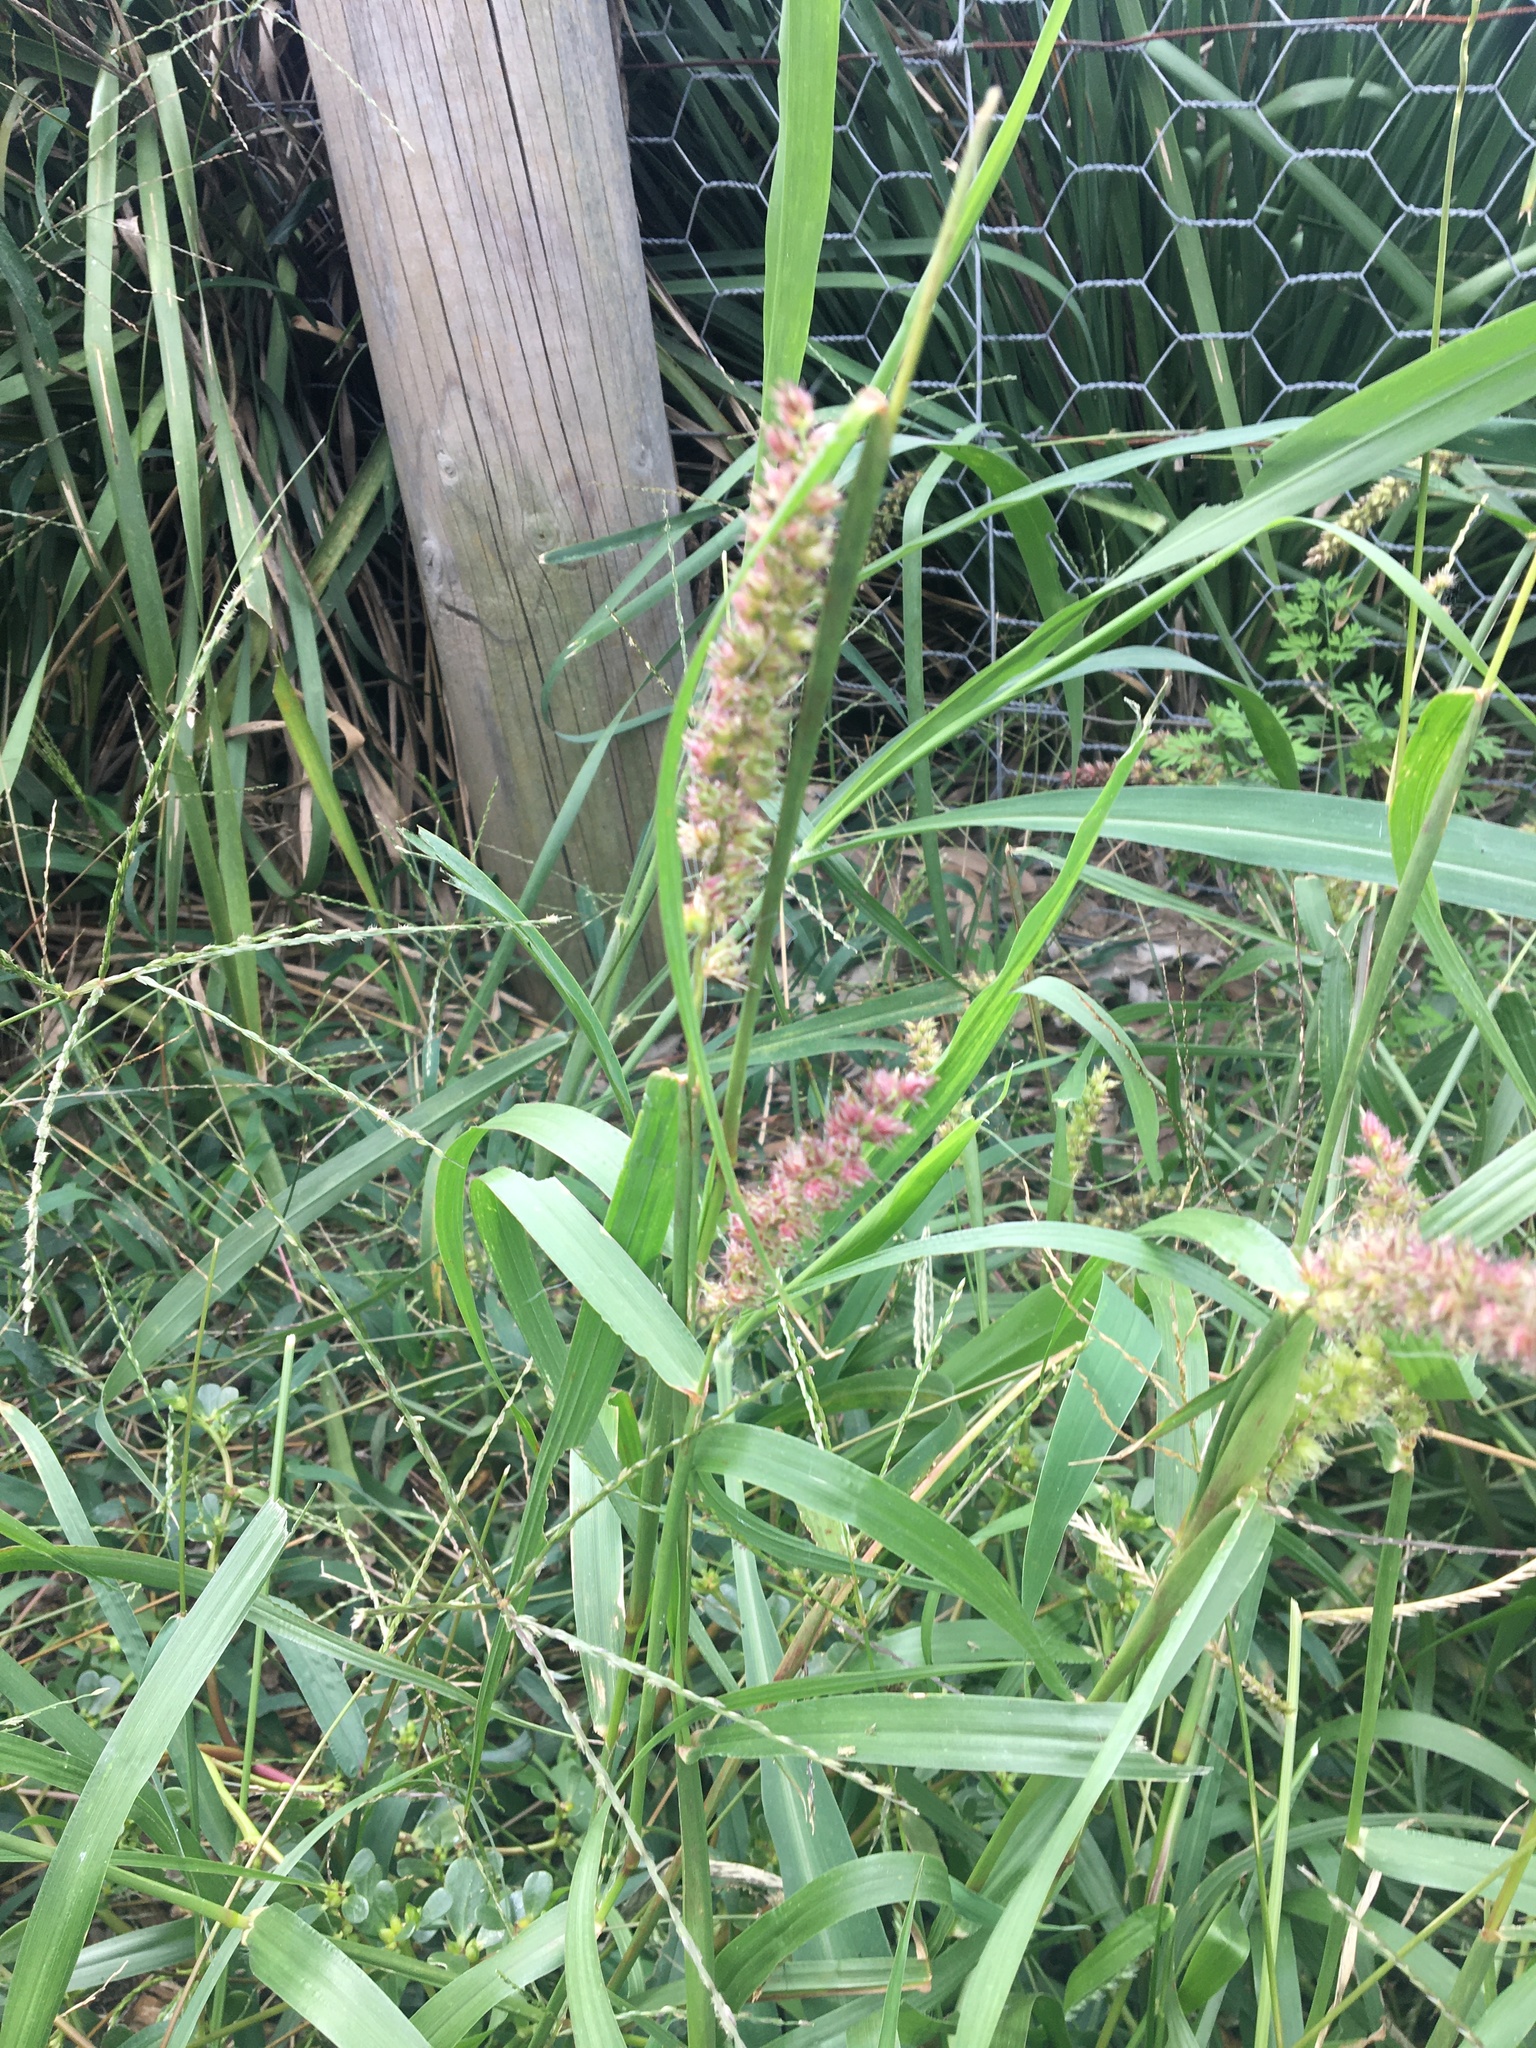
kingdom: Plantae
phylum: Tracheophyta
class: Liliopsida
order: Poales
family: Poaceae
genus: Cenchrus
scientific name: Cenchrus echinatus
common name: Southern sandbur
